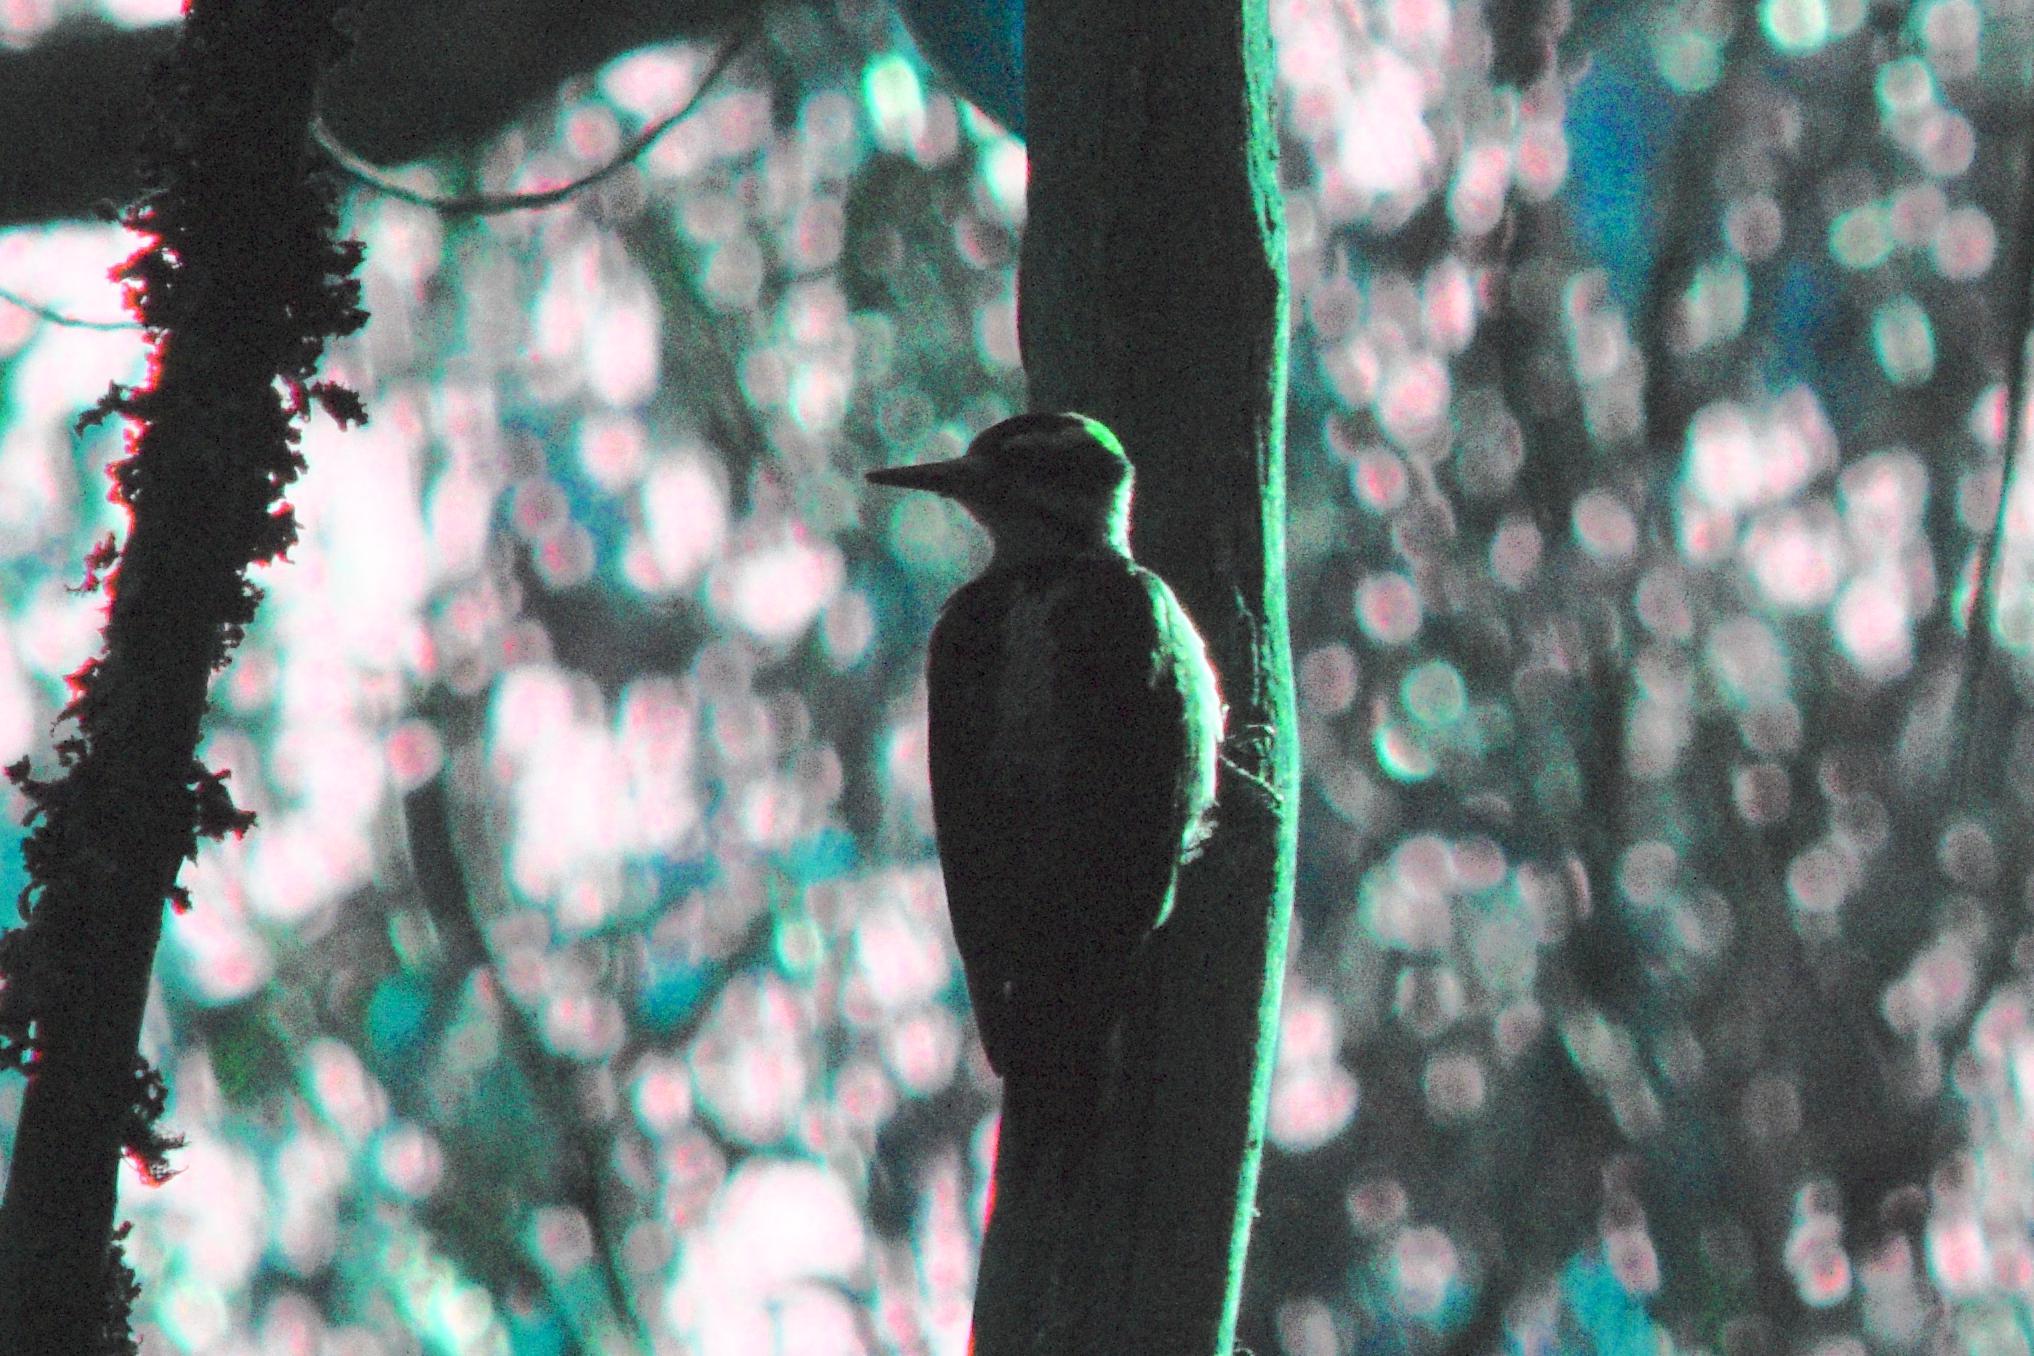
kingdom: Animalia
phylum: Chordata
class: Aves
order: Piciformes
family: Picidae
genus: Leuconotopicus
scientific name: Leuconotopicus villosus
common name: Hairy woodpecker
